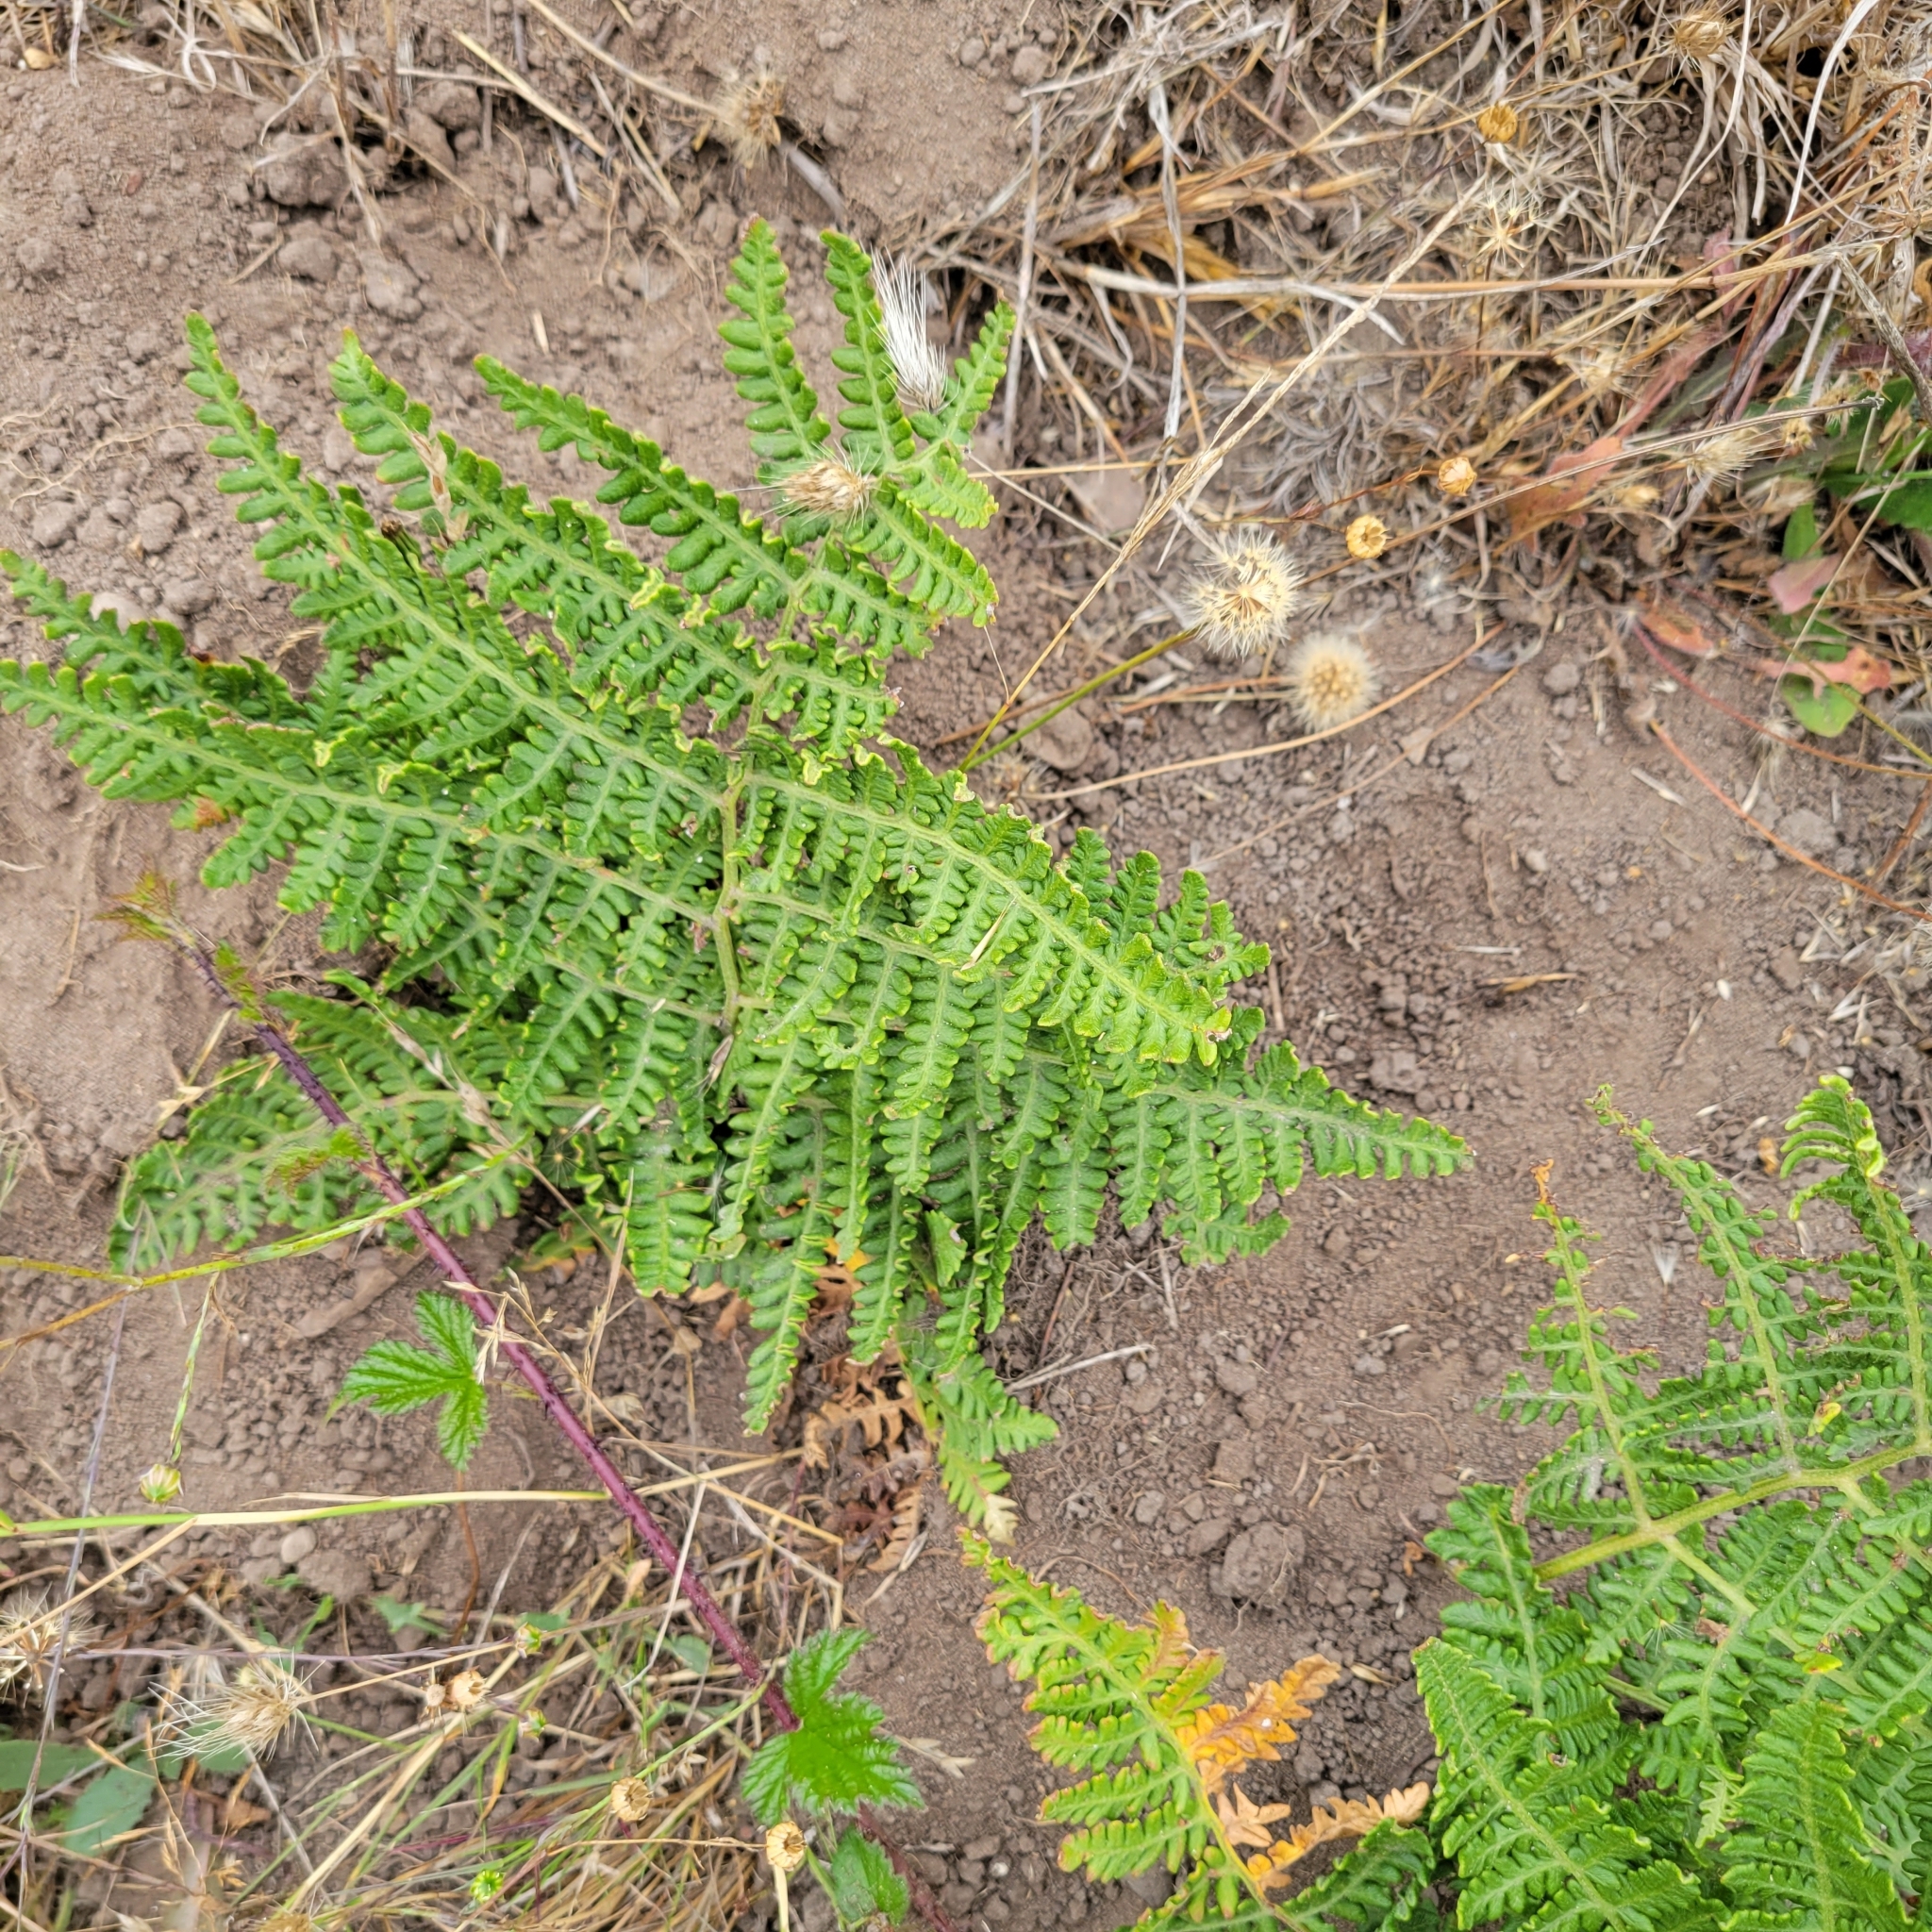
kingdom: Plantae
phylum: Tracheophyta
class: Polypodiopsida
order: Polypodiales
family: Dennstaedtiaceae
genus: Pteridium
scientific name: Pteridium aquilinum
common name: Bracken
